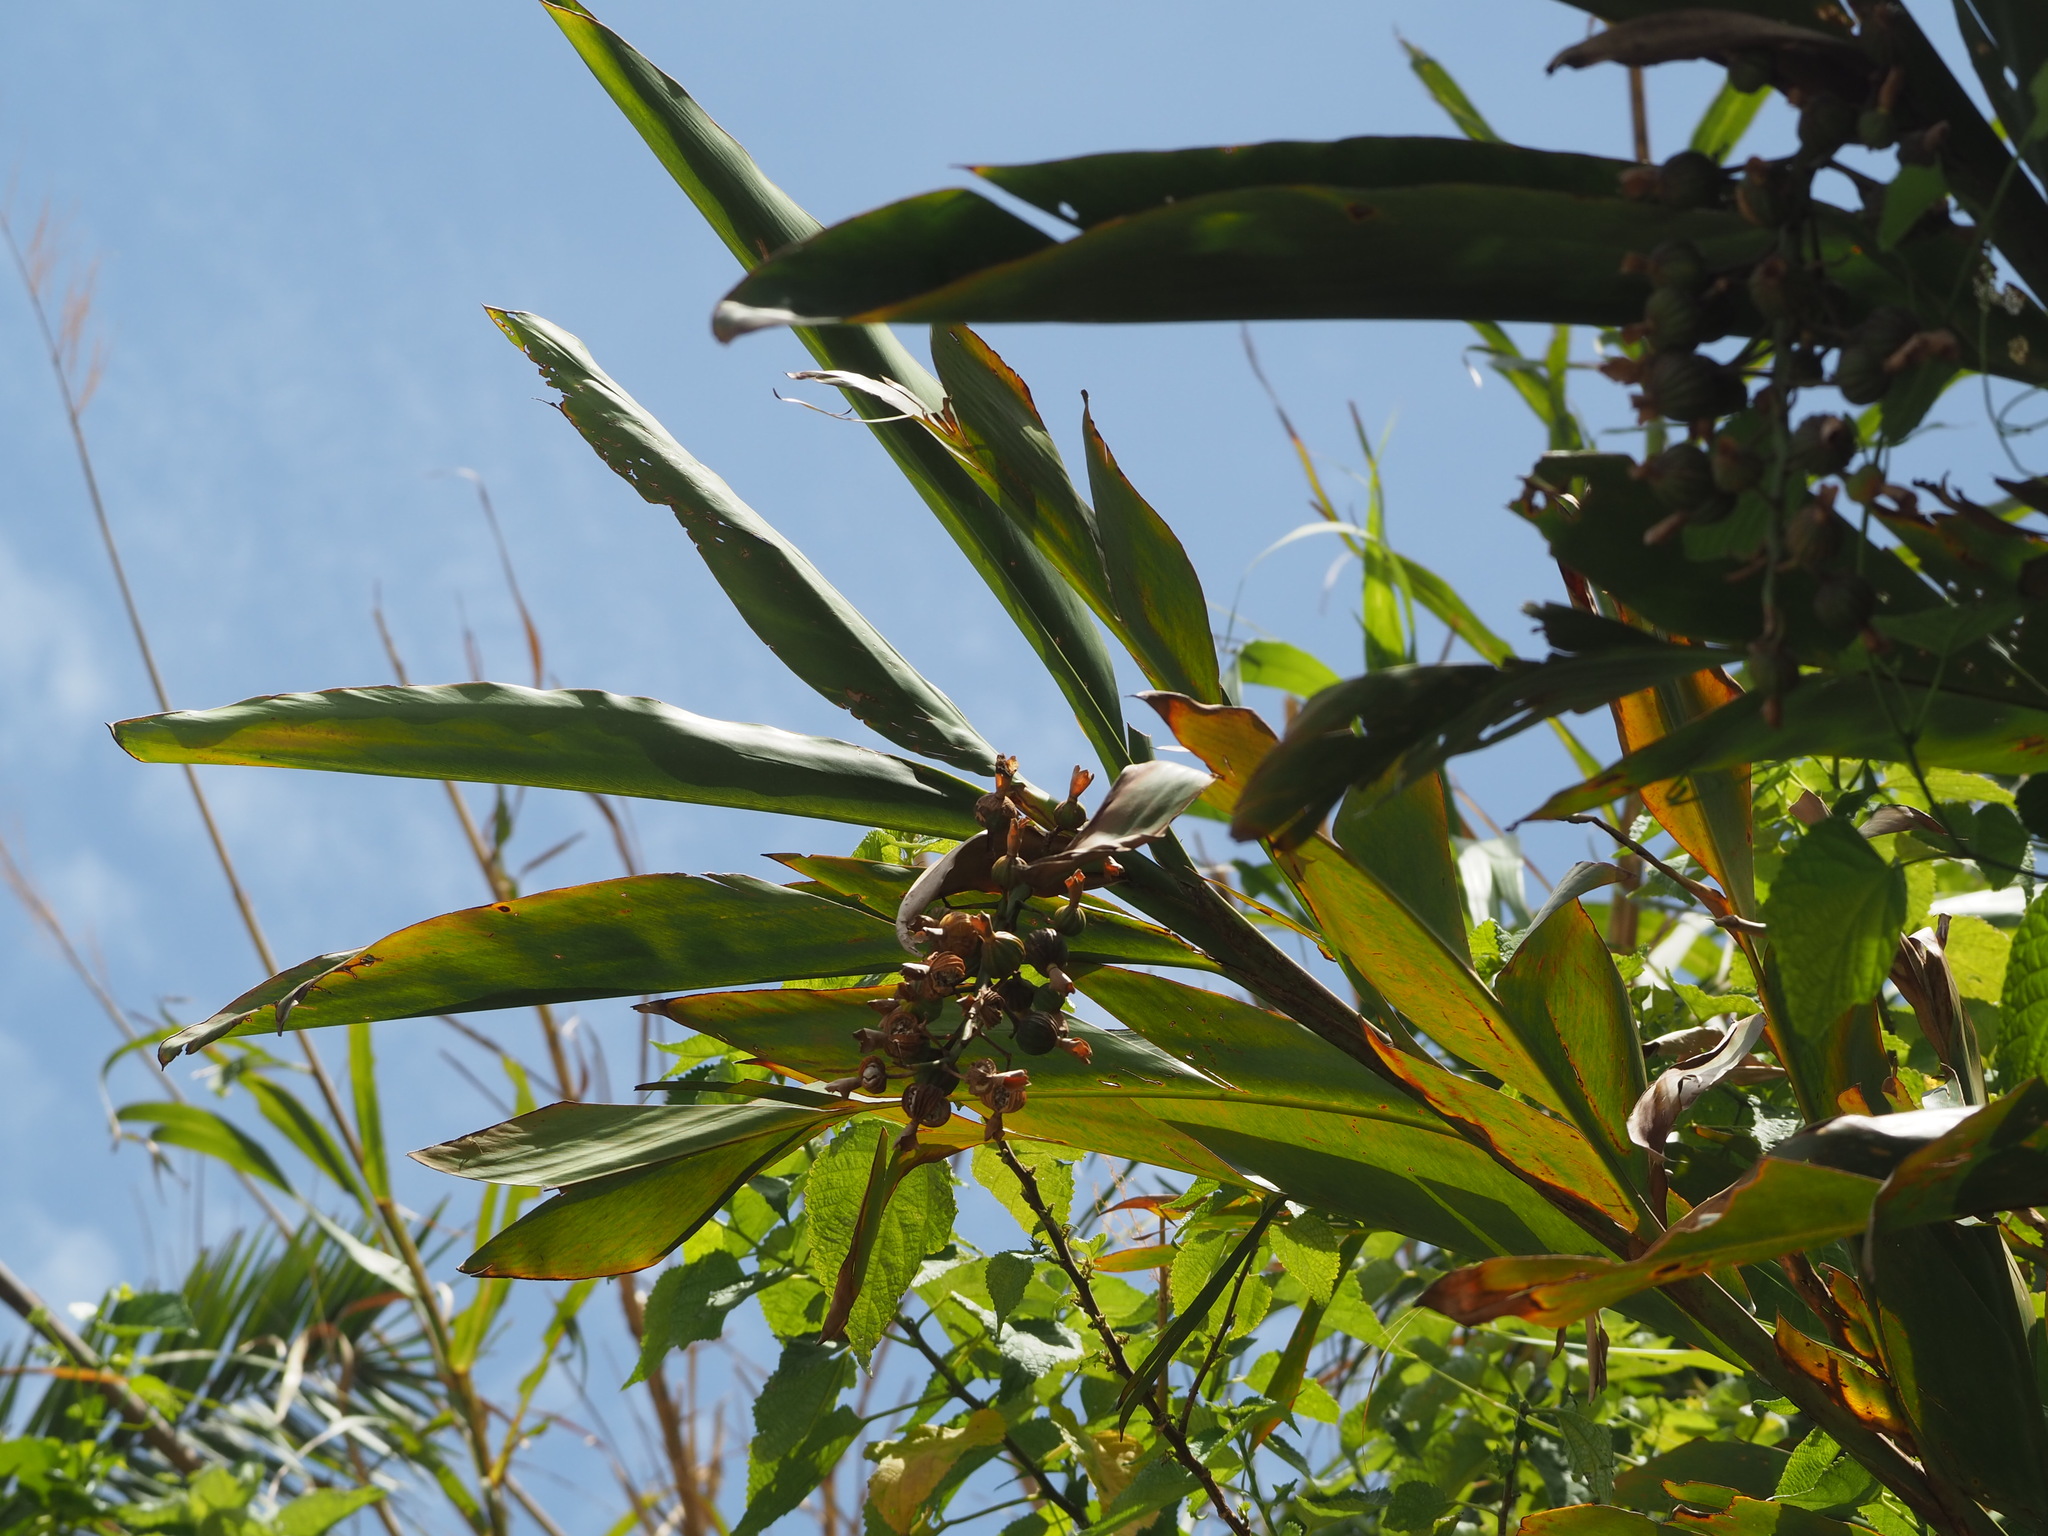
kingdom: Plantae
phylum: Tracheophyta
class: Liliopsida
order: Zingiberales
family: Zingiberaceae
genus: Alpinia
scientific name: Alpinia zerumbet
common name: Shellplant
